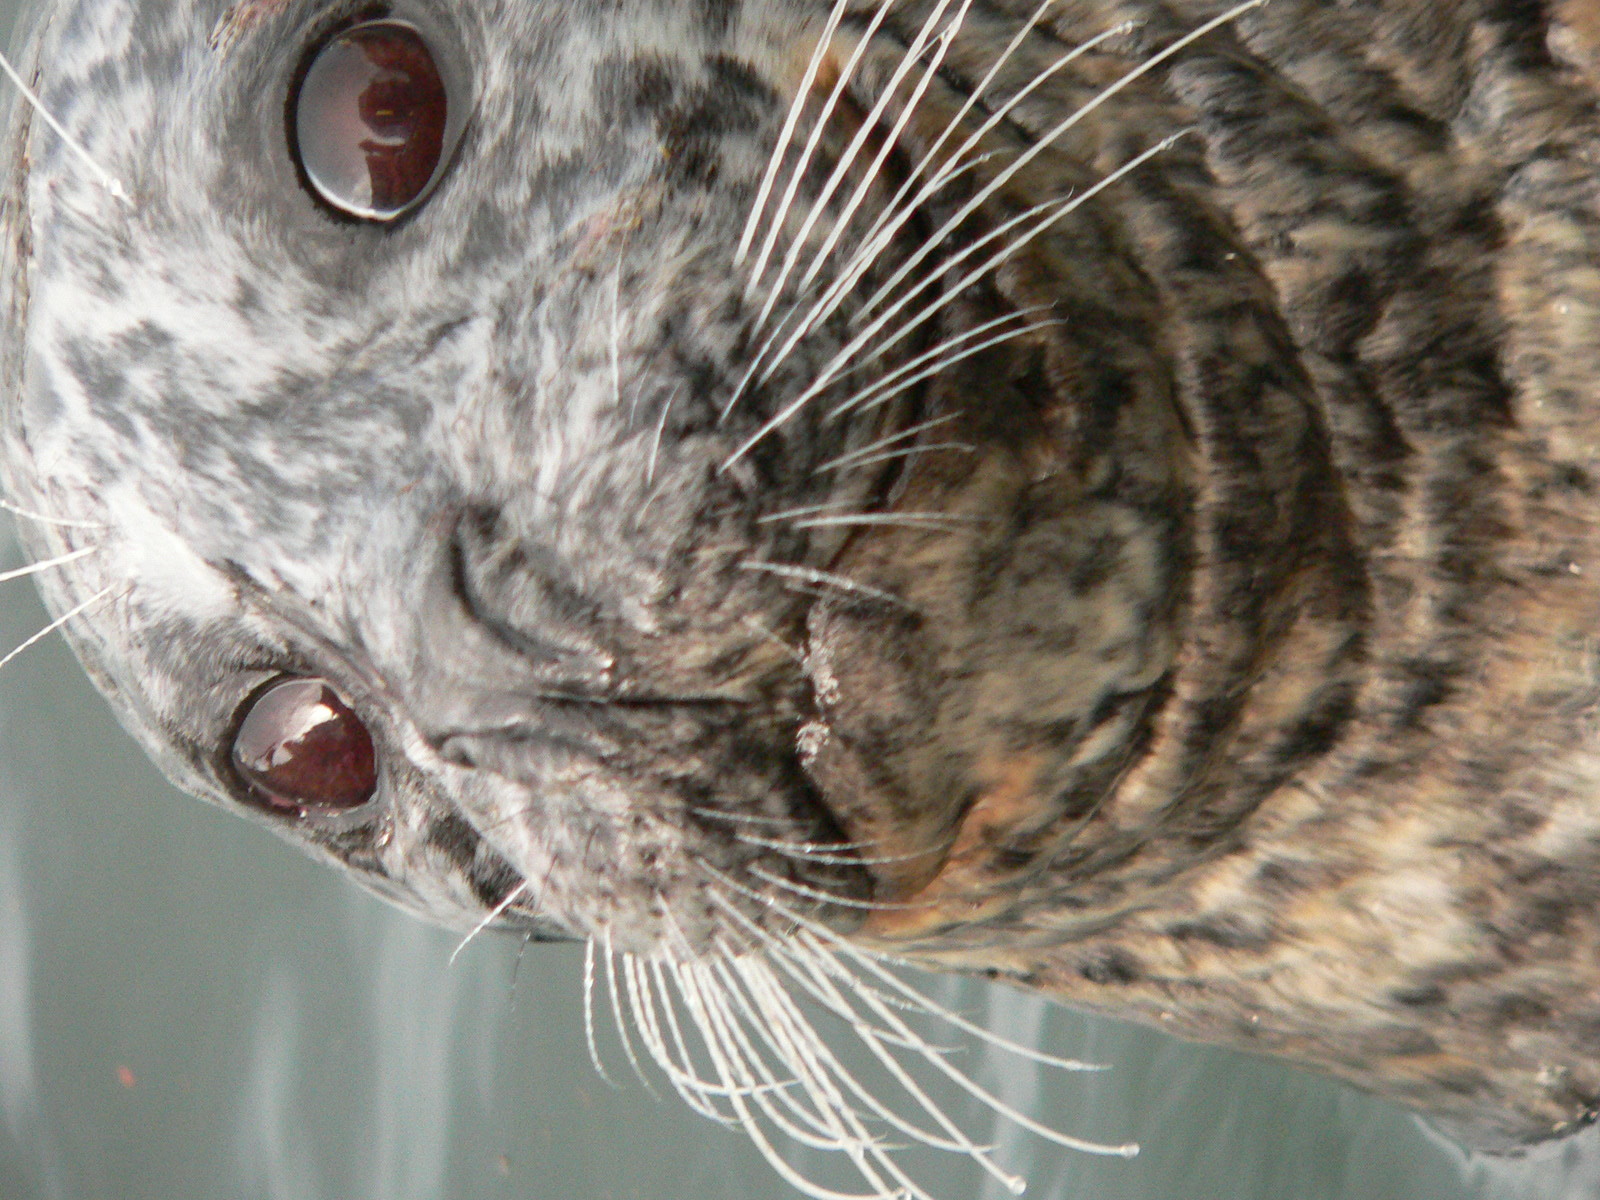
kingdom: Animalia
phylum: Chordata
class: Mammalia
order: Carnivora
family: Phocidae
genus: Phoca
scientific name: Phoca vitulina
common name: Harbor seal
